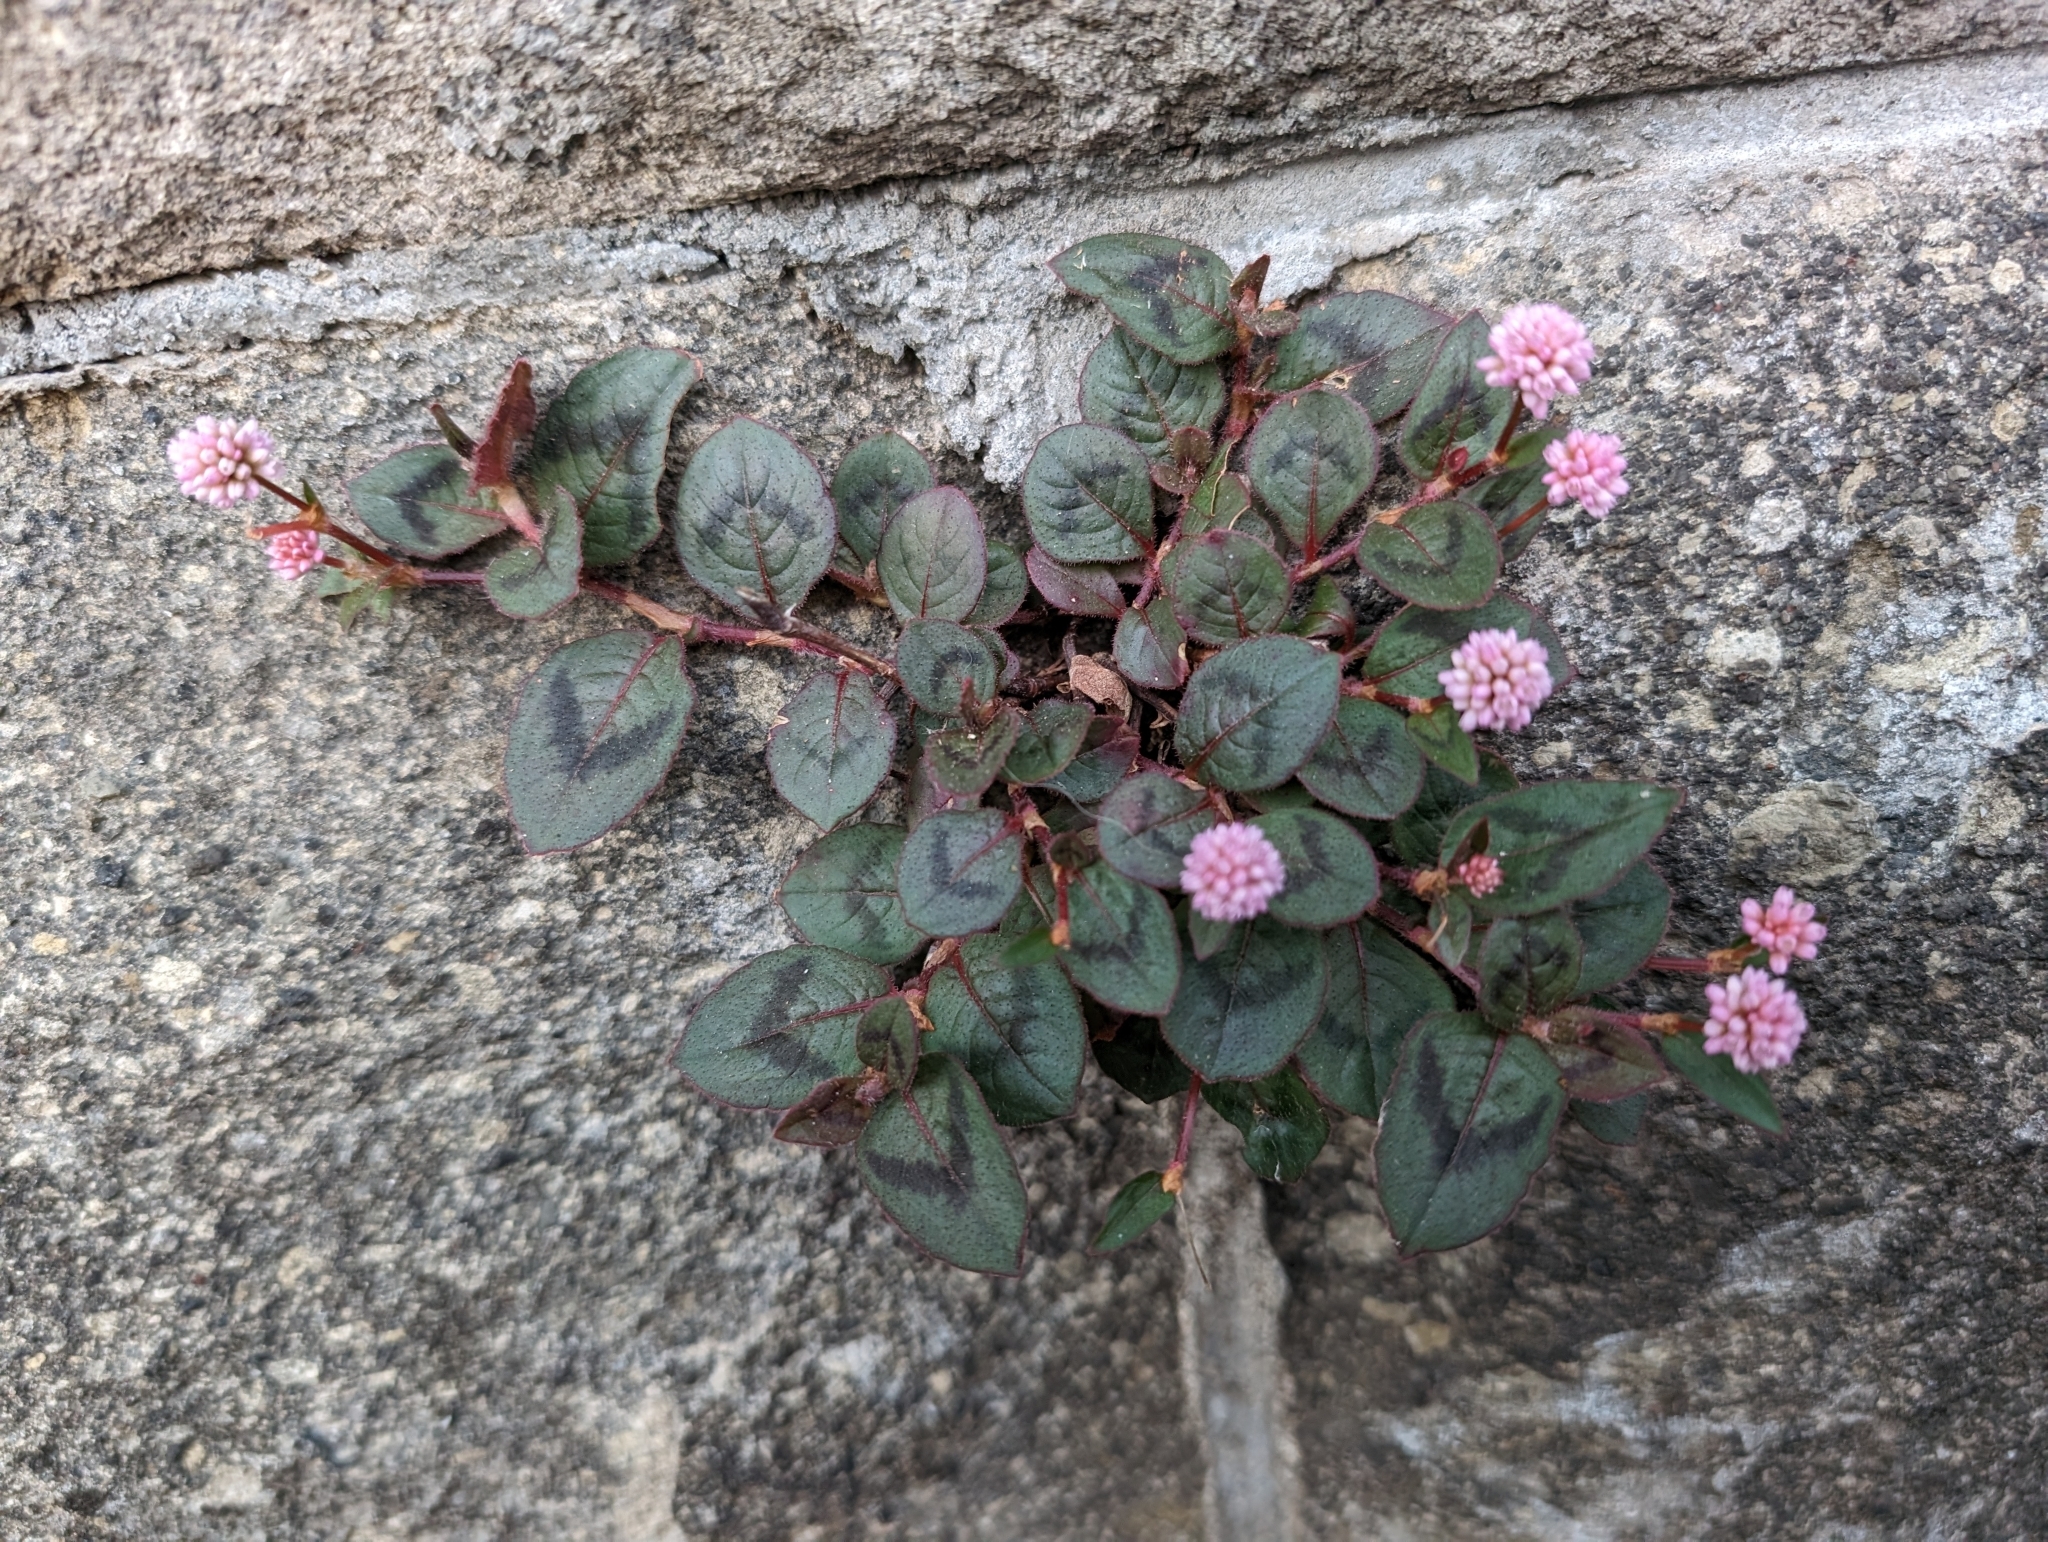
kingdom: Plantae
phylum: Tracheophyta
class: Magnoliopsida
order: Caryophyllales
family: Polygonaceae
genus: Persicaria
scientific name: Persicaria capitata
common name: Pinkhead smartweed
